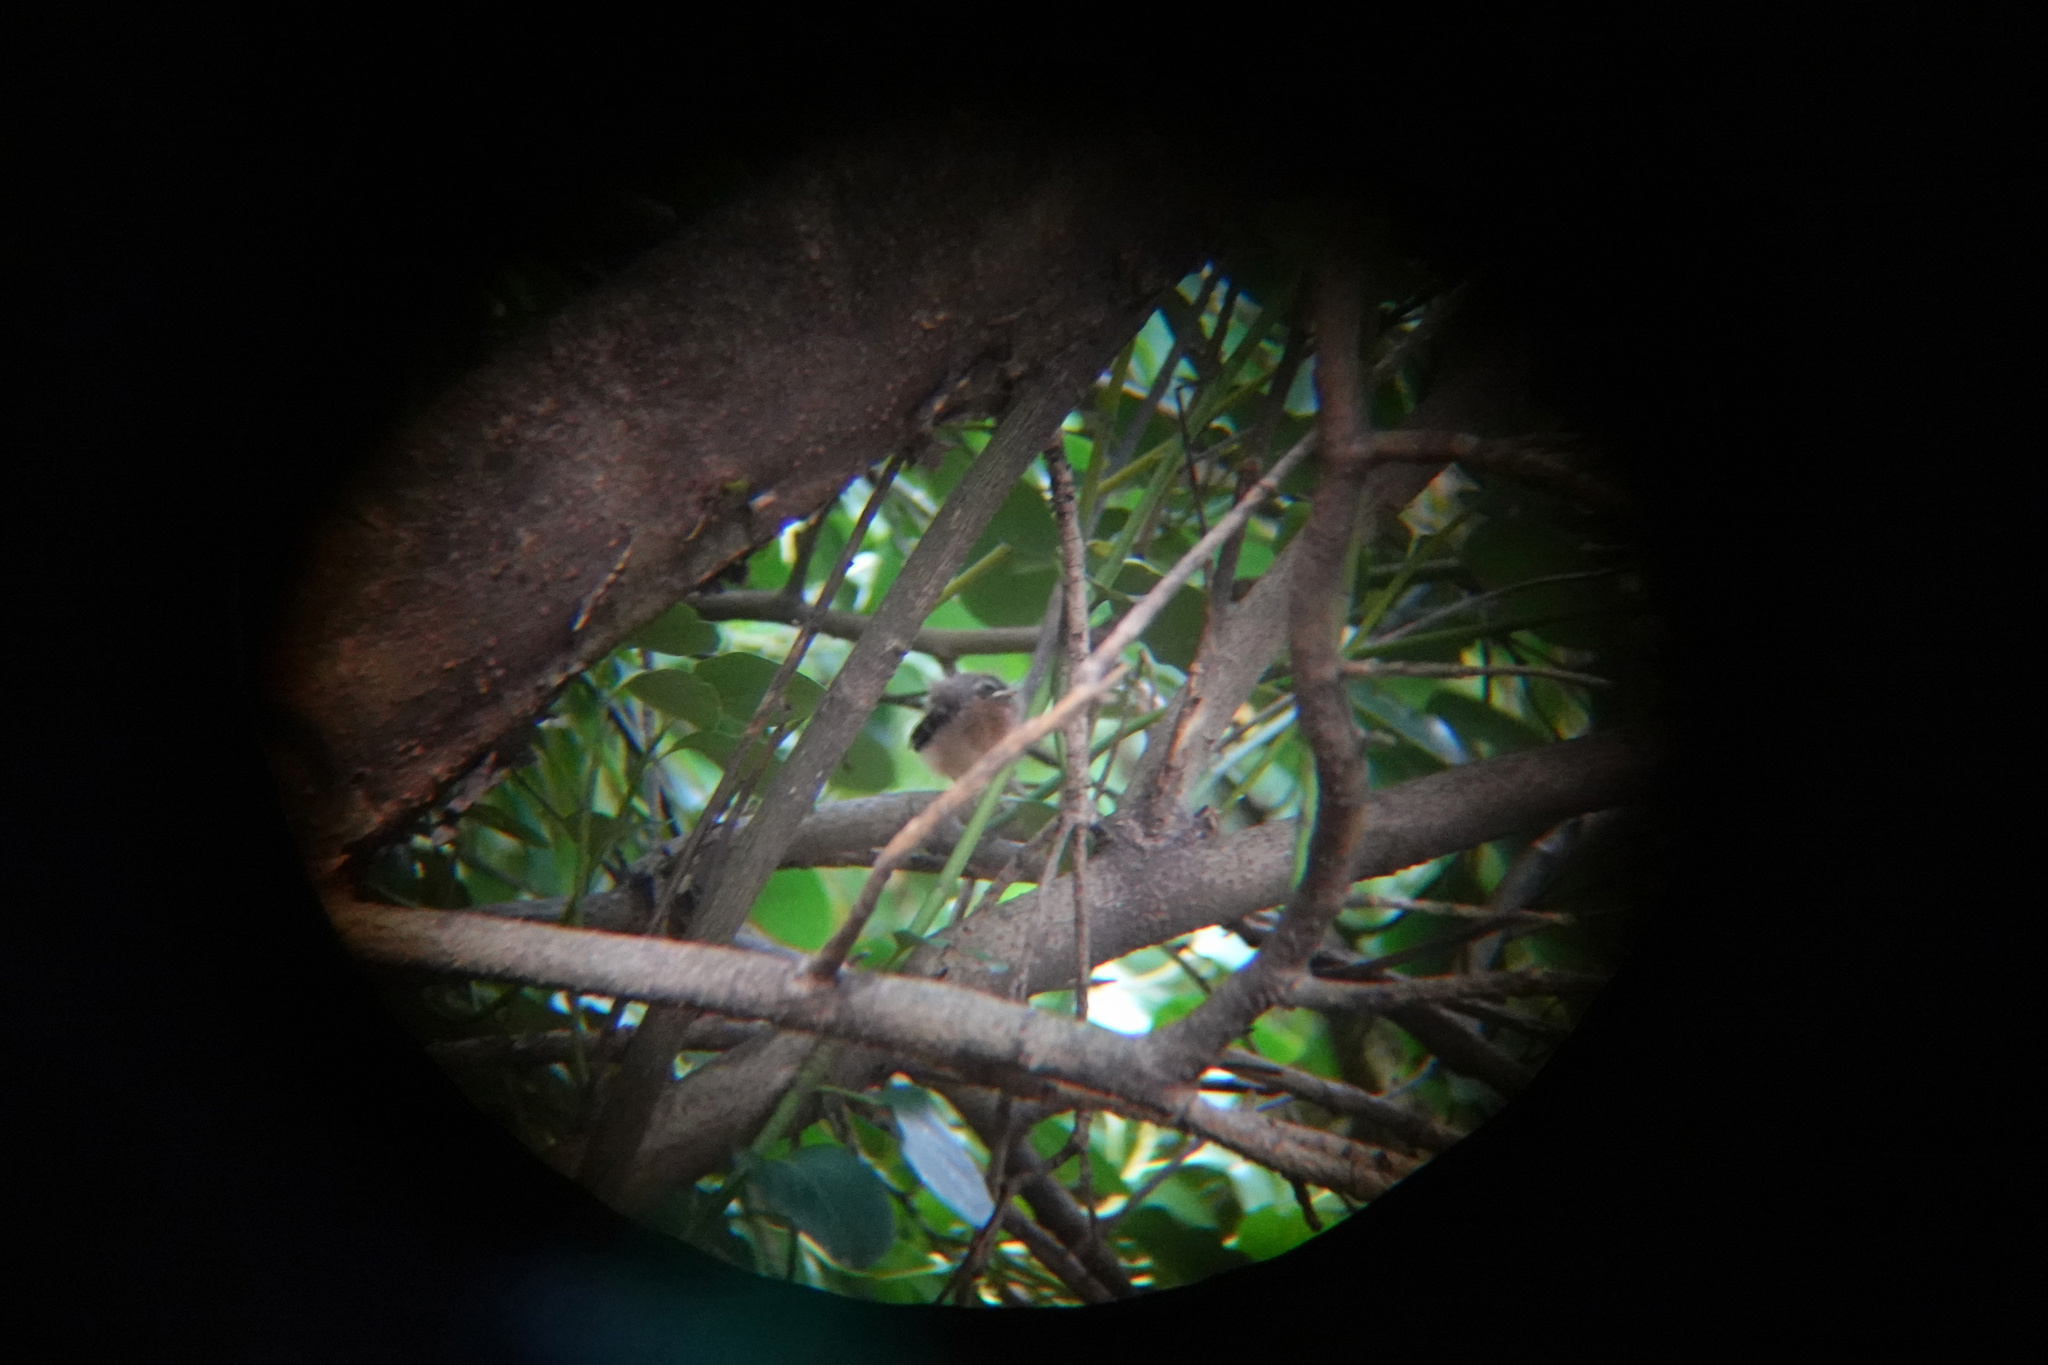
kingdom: Animalia
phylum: Chordata
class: Aves
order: Passeriformes
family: Rhipiduridae
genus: Rhipidura
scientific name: Rhipidura fuliginosa
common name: New zealand fantail
